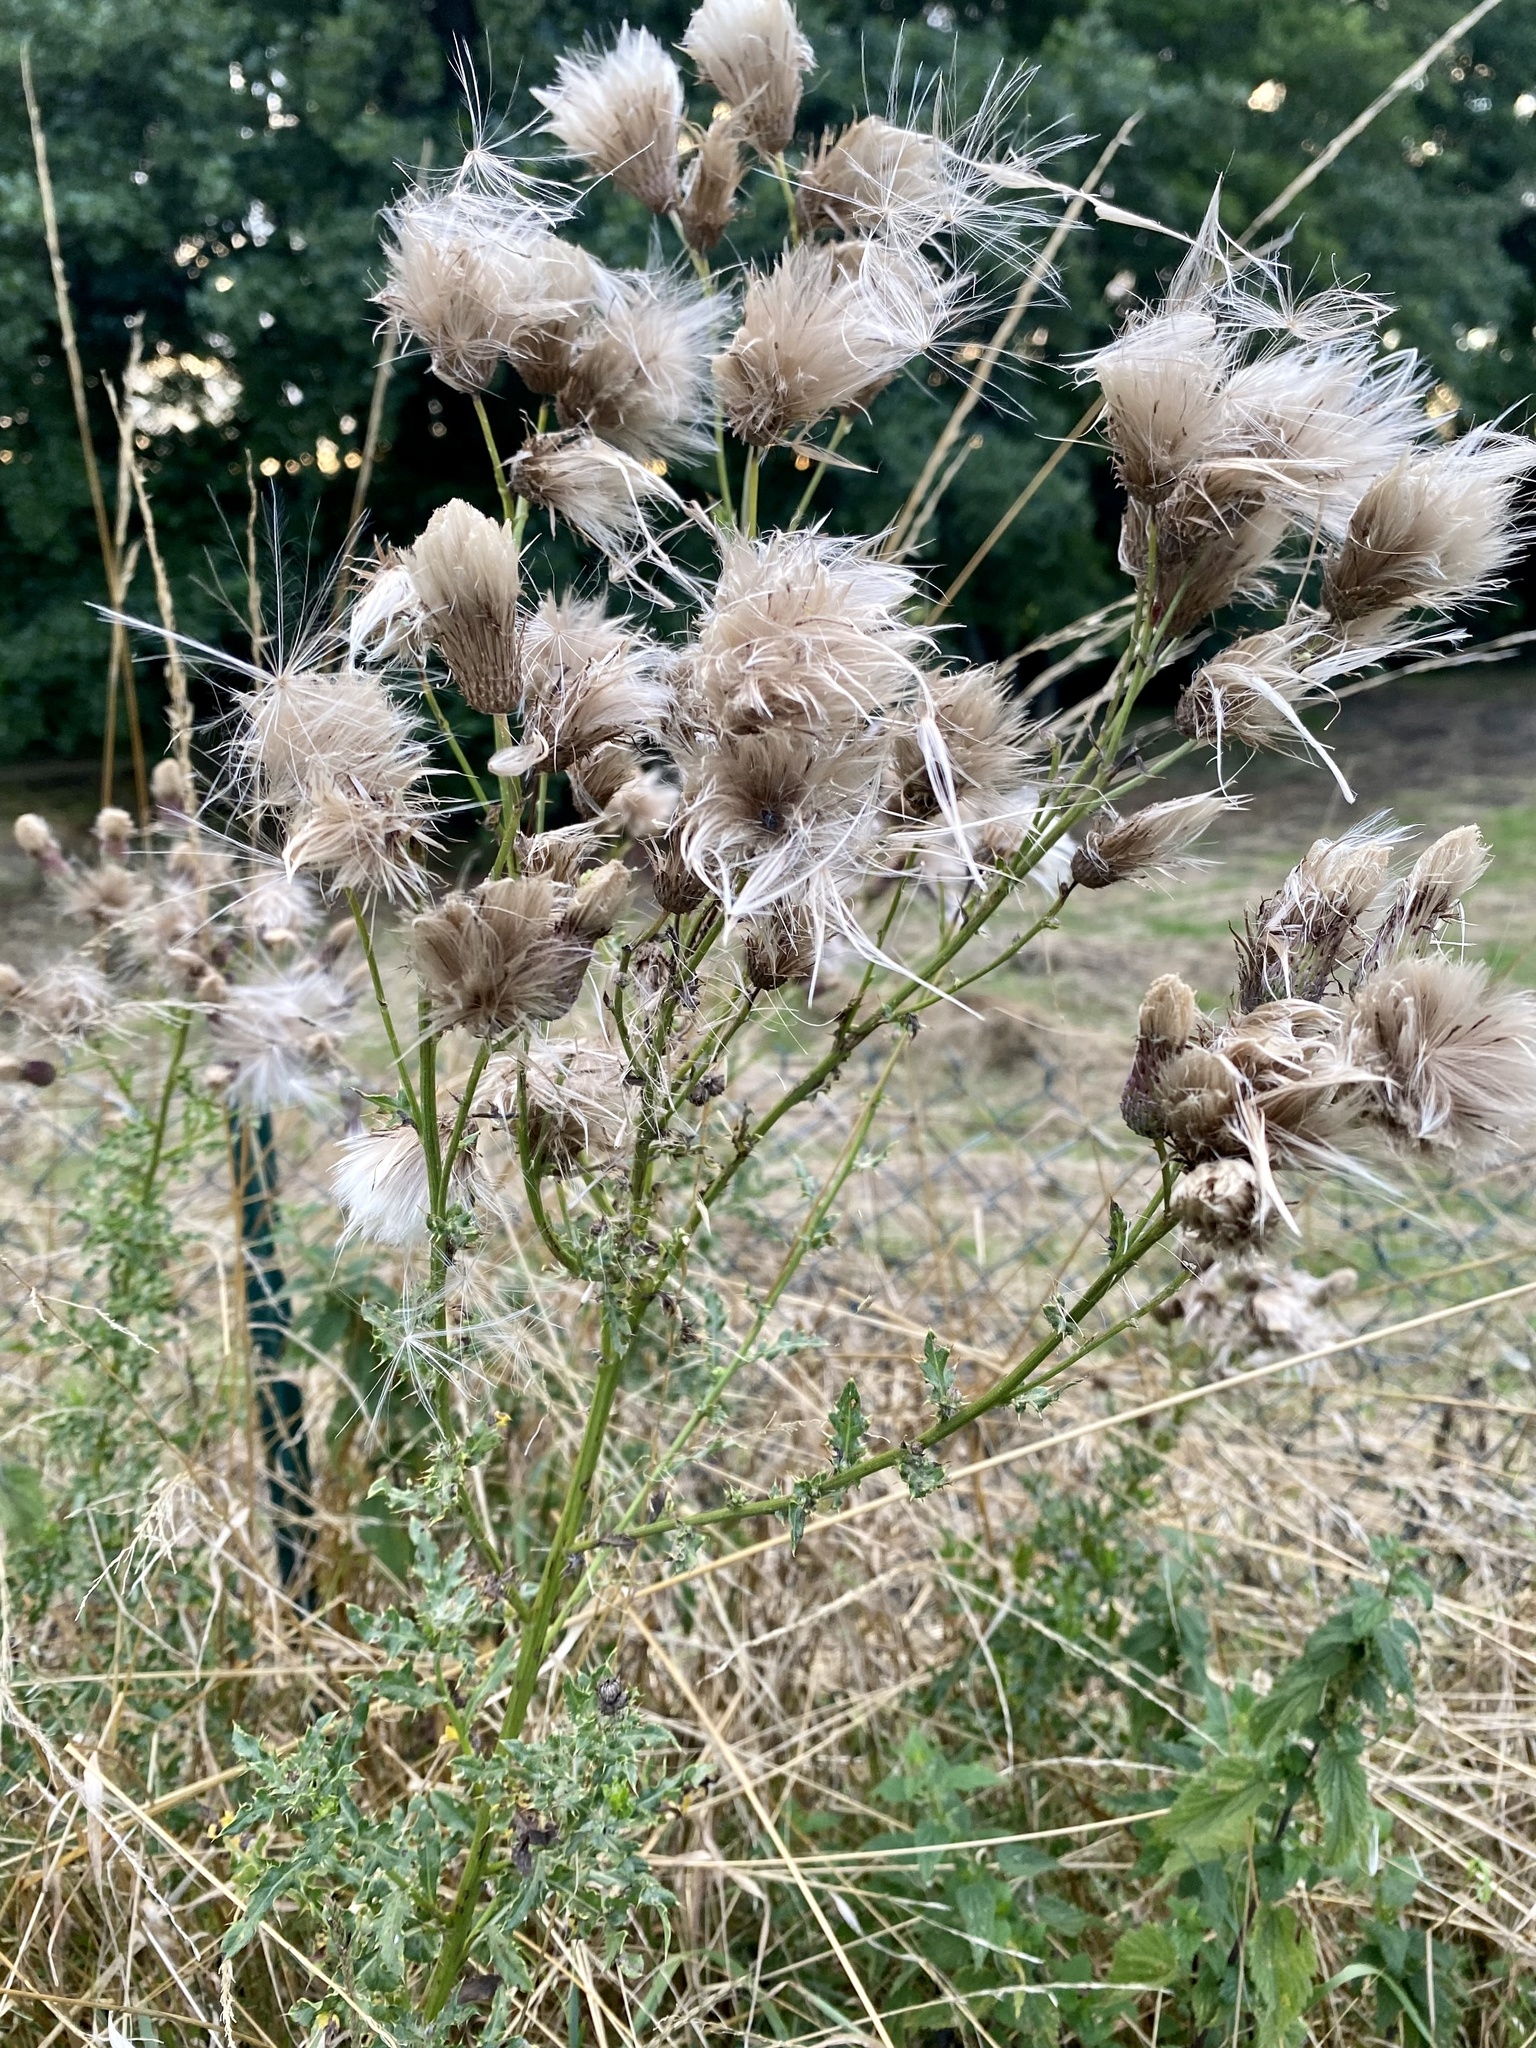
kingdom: Plantae
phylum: Tracheophyta
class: Magnoliopsida
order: Asterales
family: Asteraceae
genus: Cirsium
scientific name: Cirsium arvense
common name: Creeping thistle
